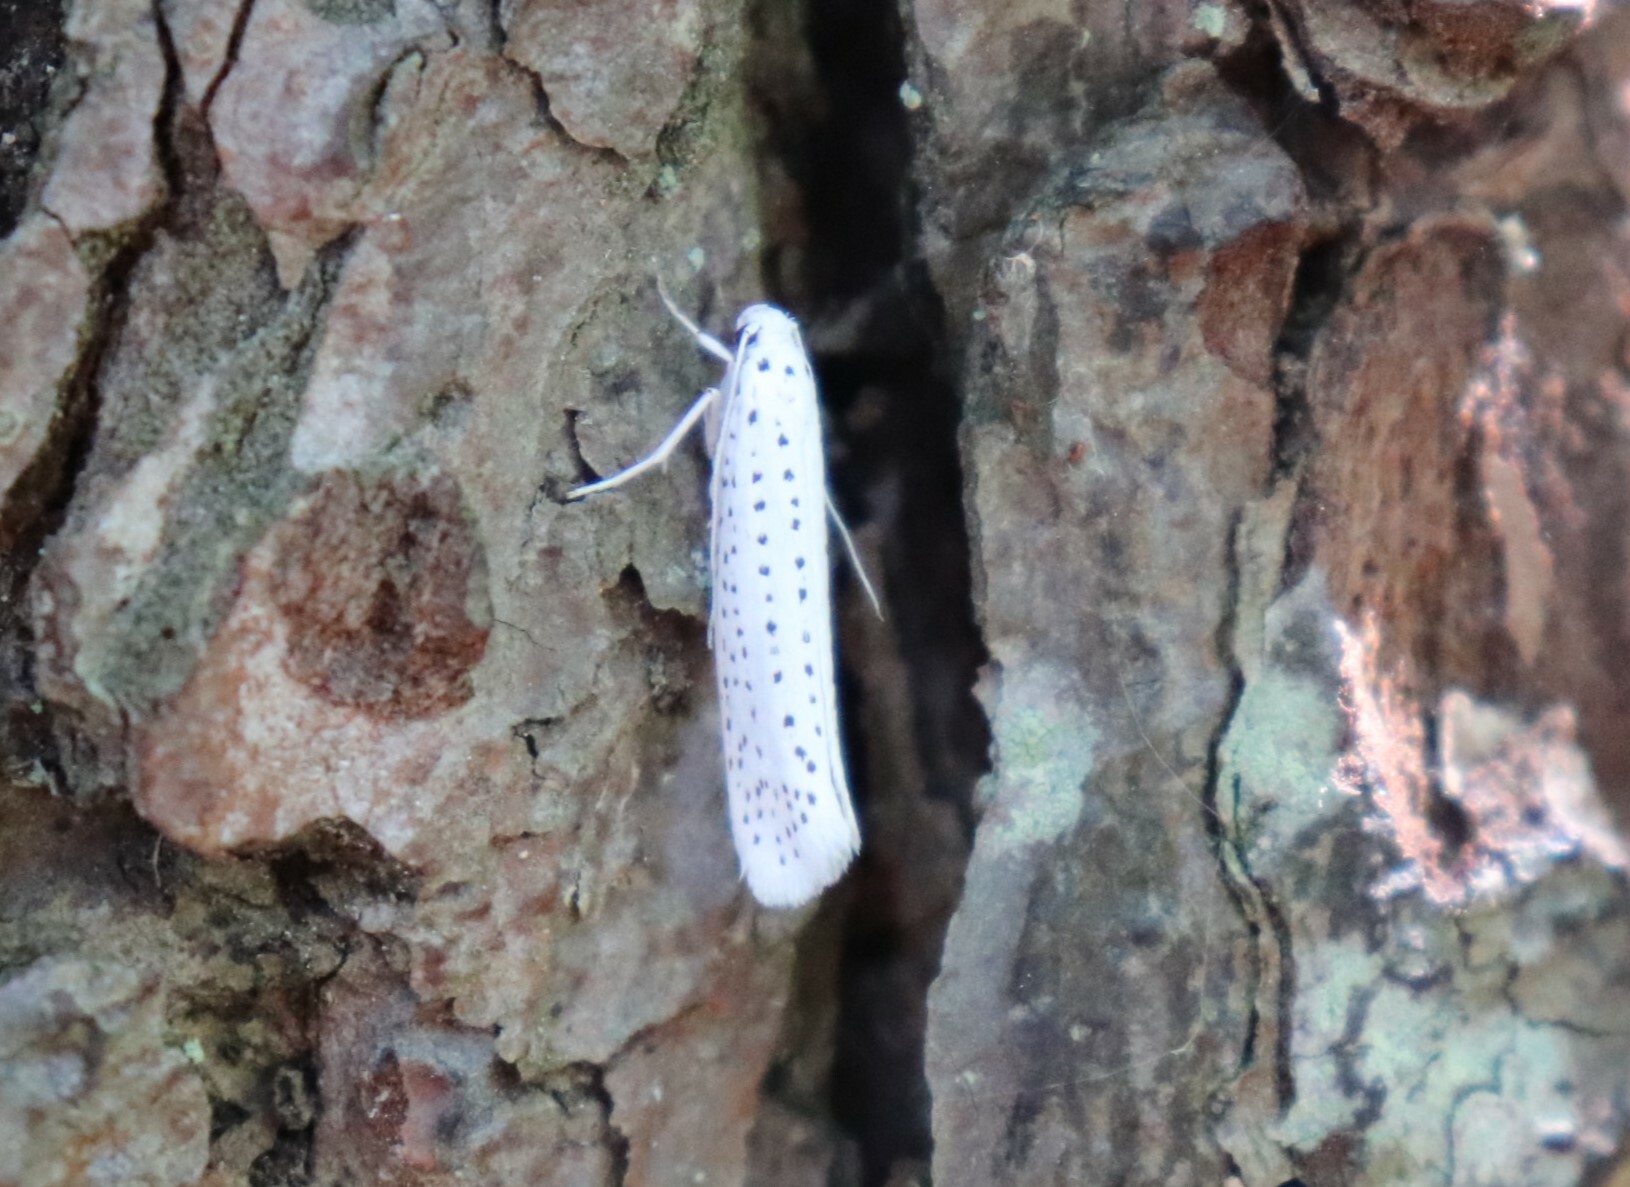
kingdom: Animalia
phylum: Arthropoda
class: Insecta
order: Lepidoptera
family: Yponomeutidae
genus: Yponomeuta
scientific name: Yponomeuta evonymella
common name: Bird-cherry ermine
